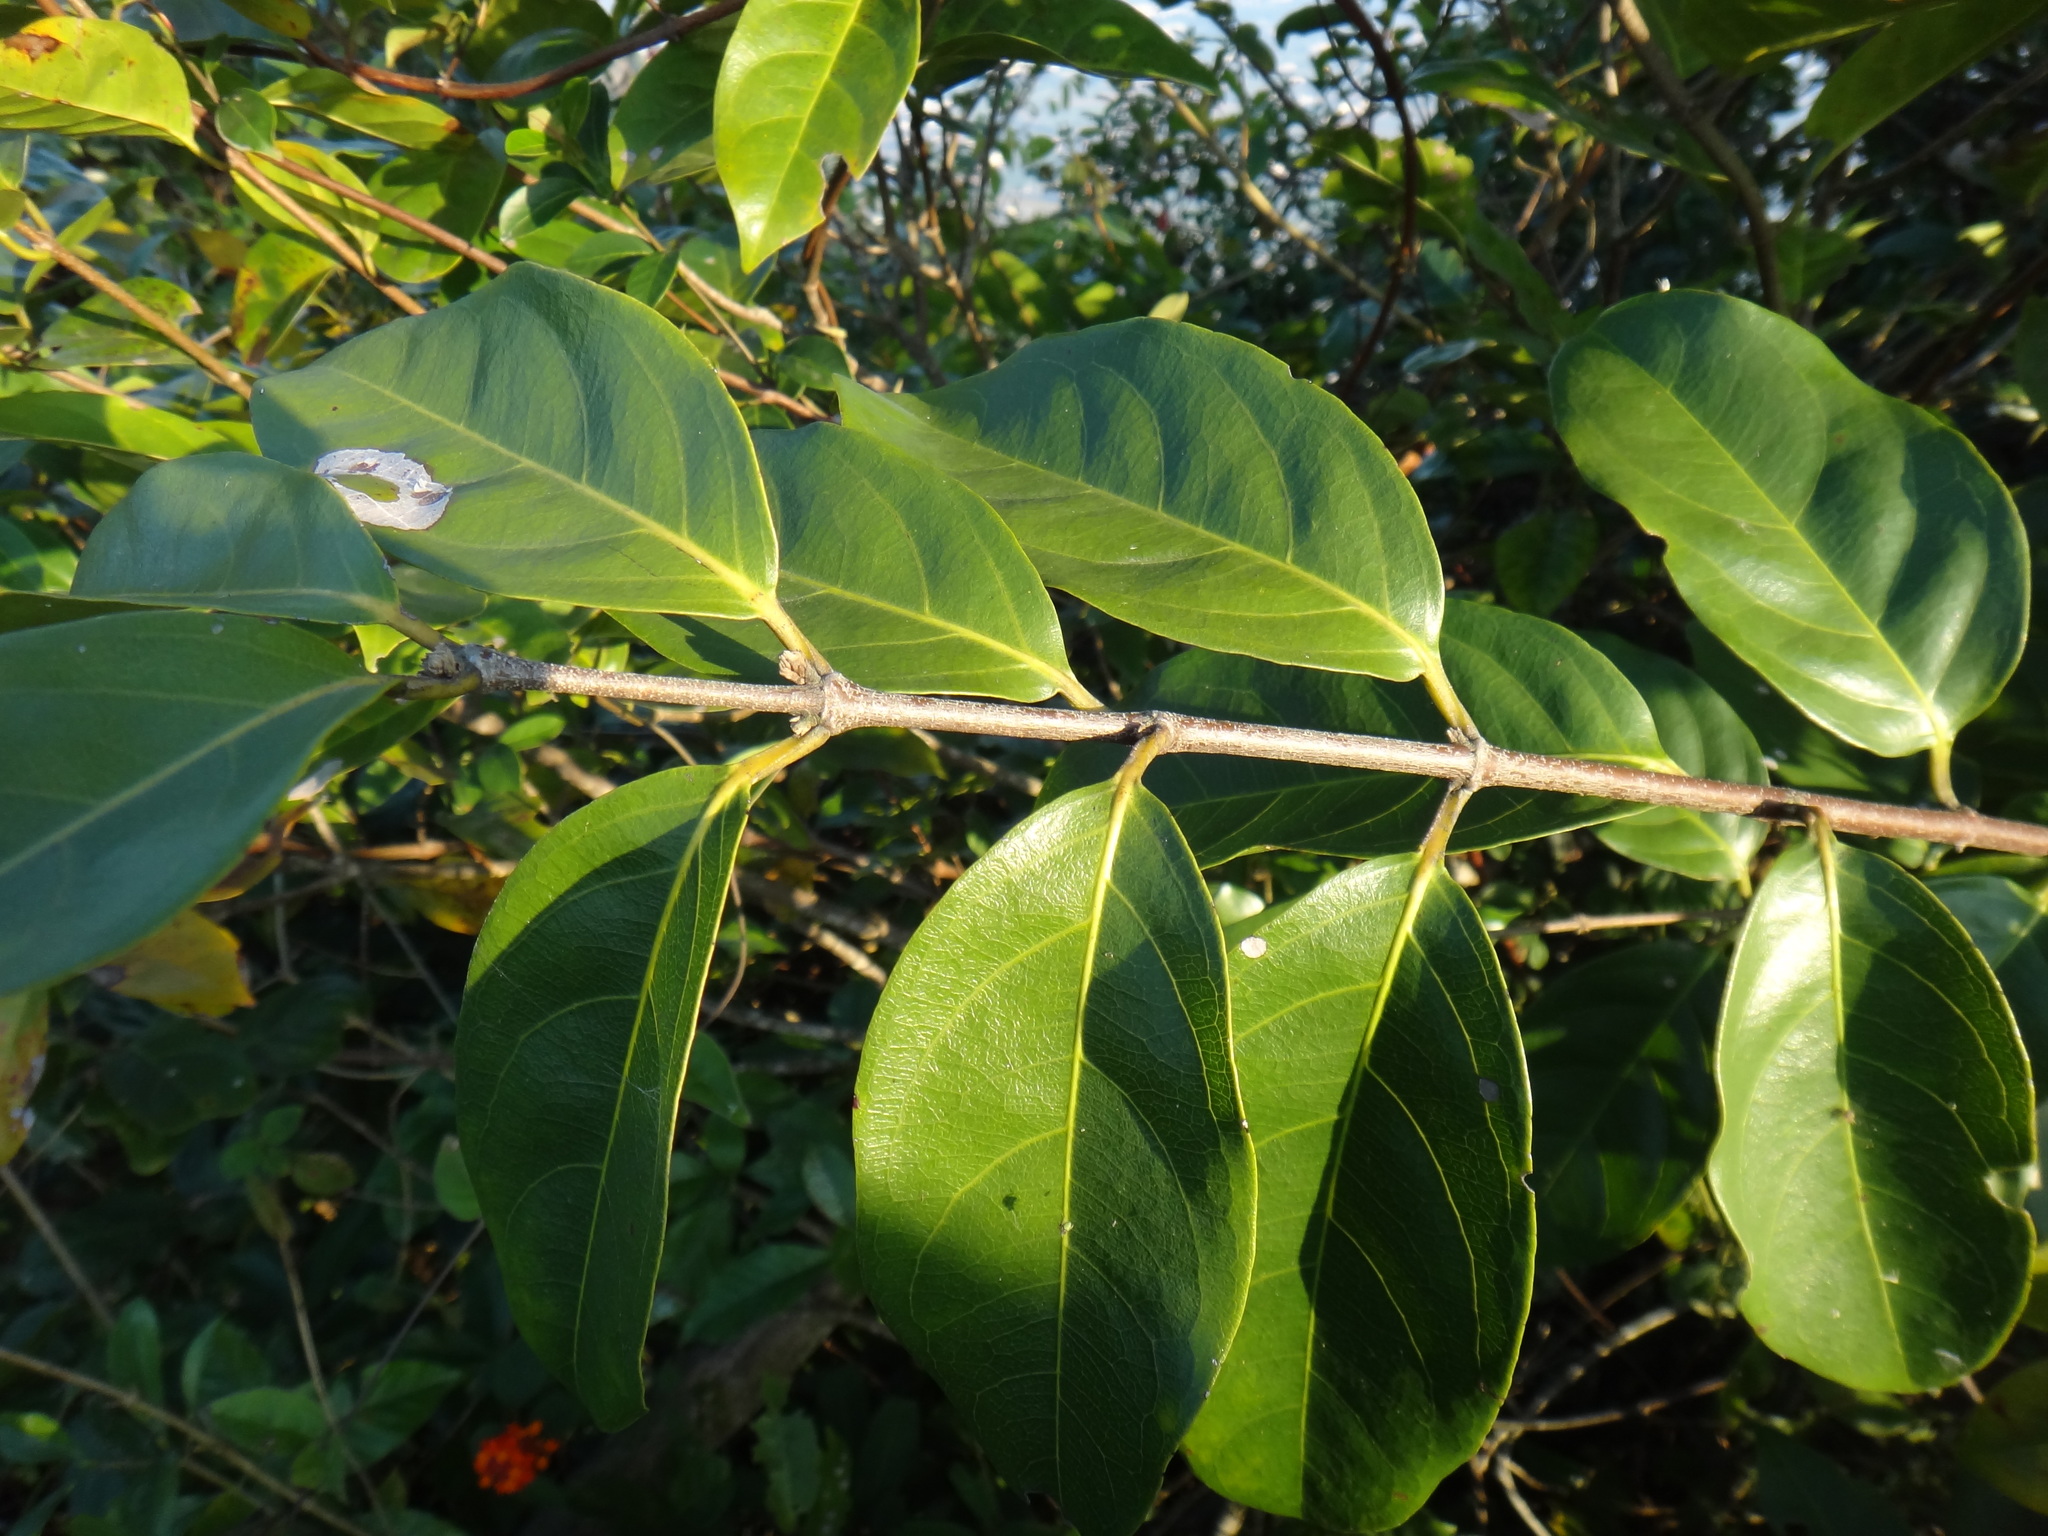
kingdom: Plantae
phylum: Tracheophyta
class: Magnoliopsida
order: Malpighiales
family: Malpighiaceae
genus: Hiptage
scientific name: Hiptage benghalensis
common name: Hiptage
